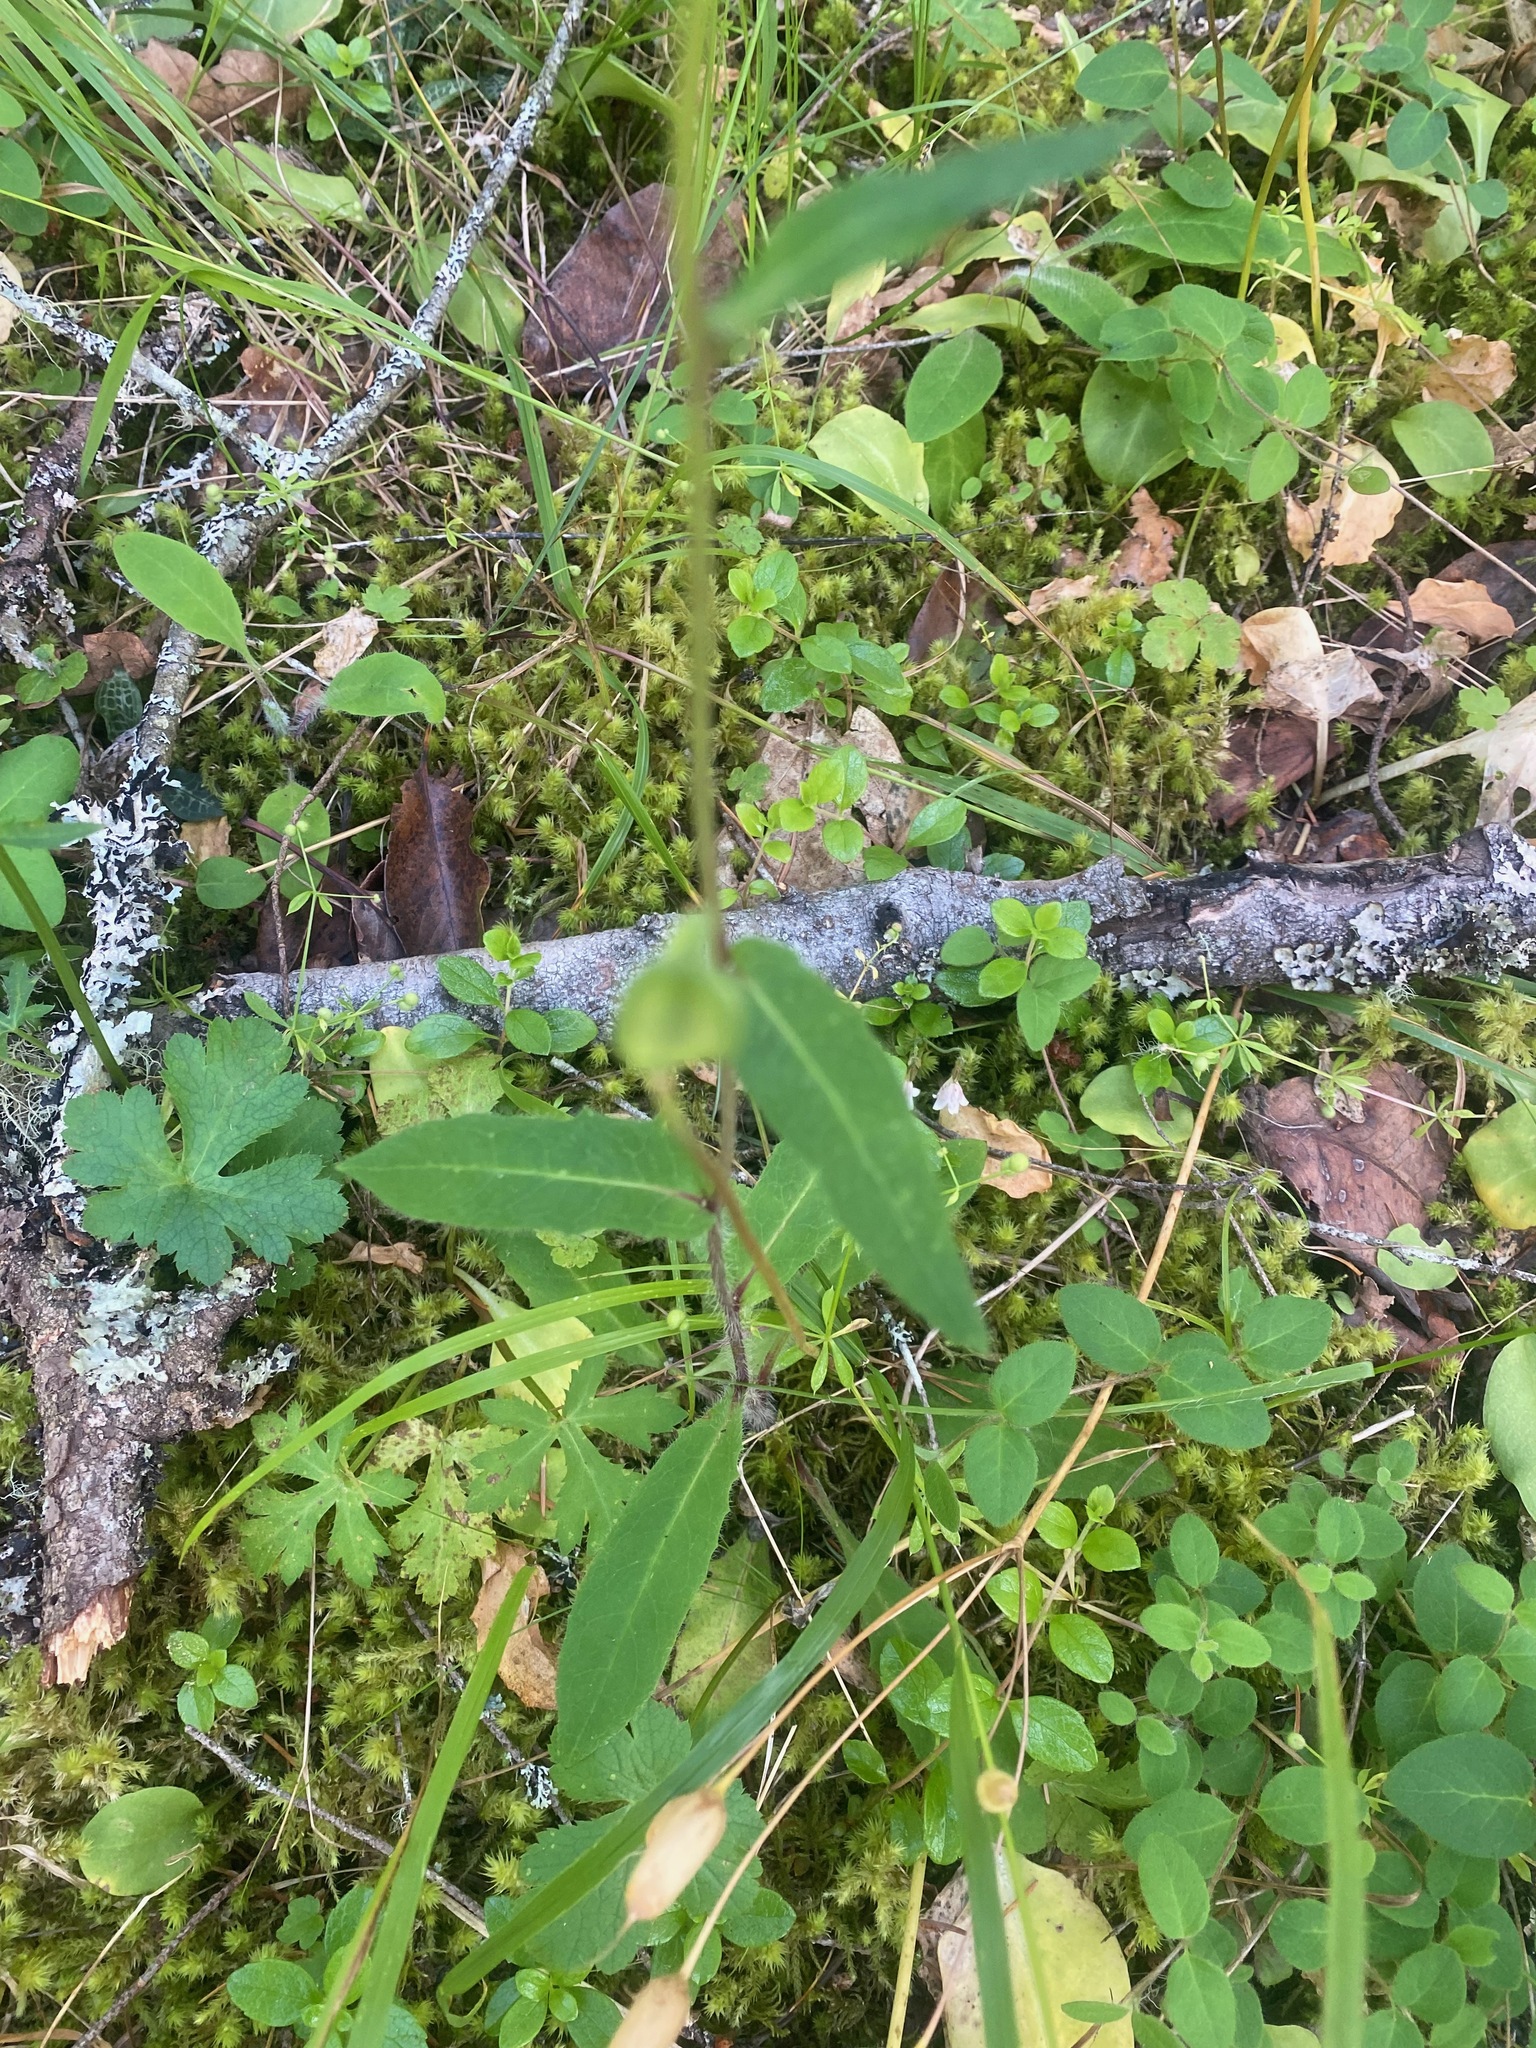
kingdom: Plantae
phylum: Tracheophyta
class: Magnoliopsida
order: Asterales
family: Asteraceae
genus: Hieracium
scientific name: Hieracium albiflorum
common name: White hawkweed
